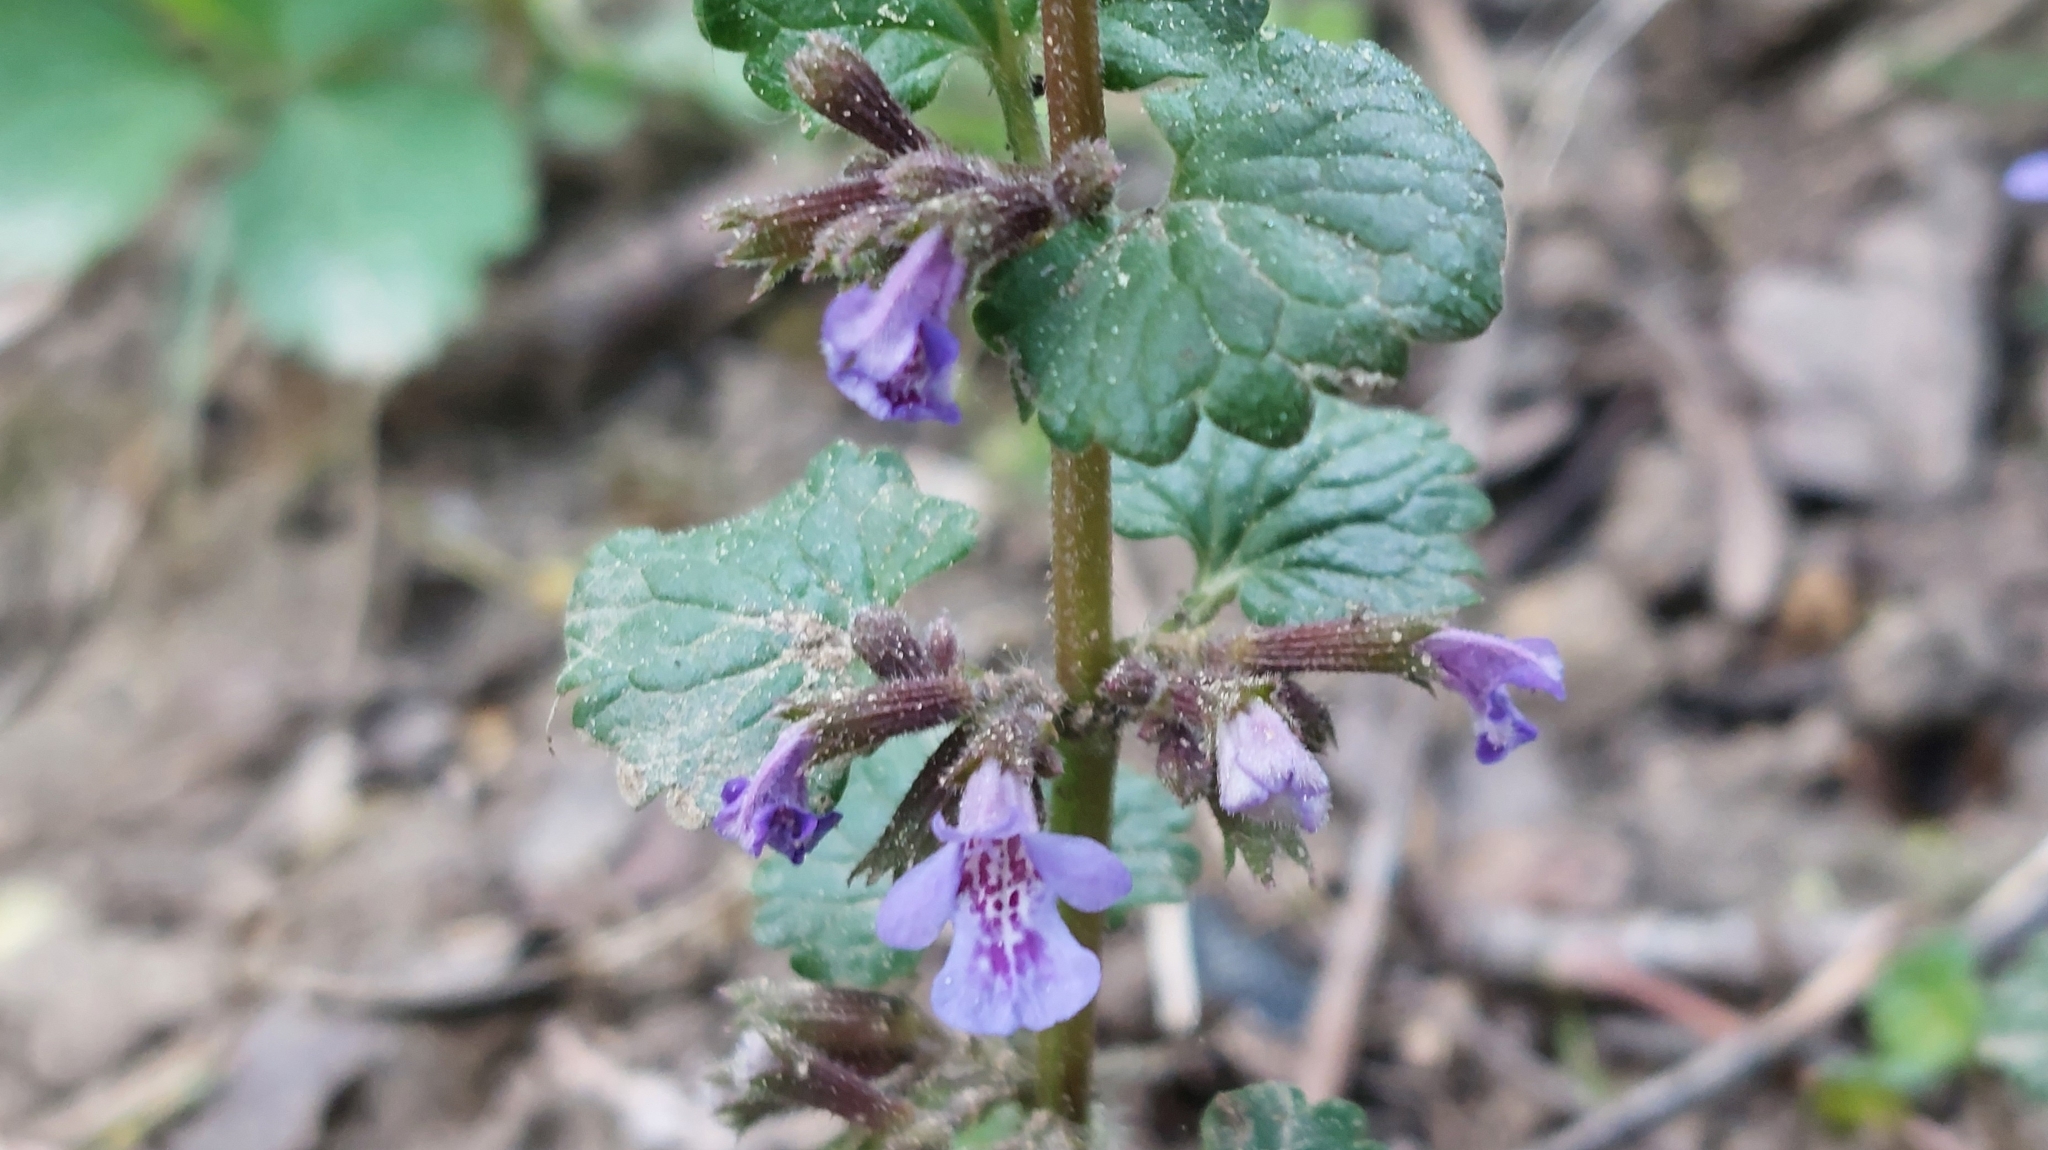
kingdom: Plantae
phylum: Tracheophyta
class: Magnoliopsida
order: Lamiales
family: Lamiaceae
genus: Glechoma
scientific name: Glechoma hederacea
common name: Ground ivy
